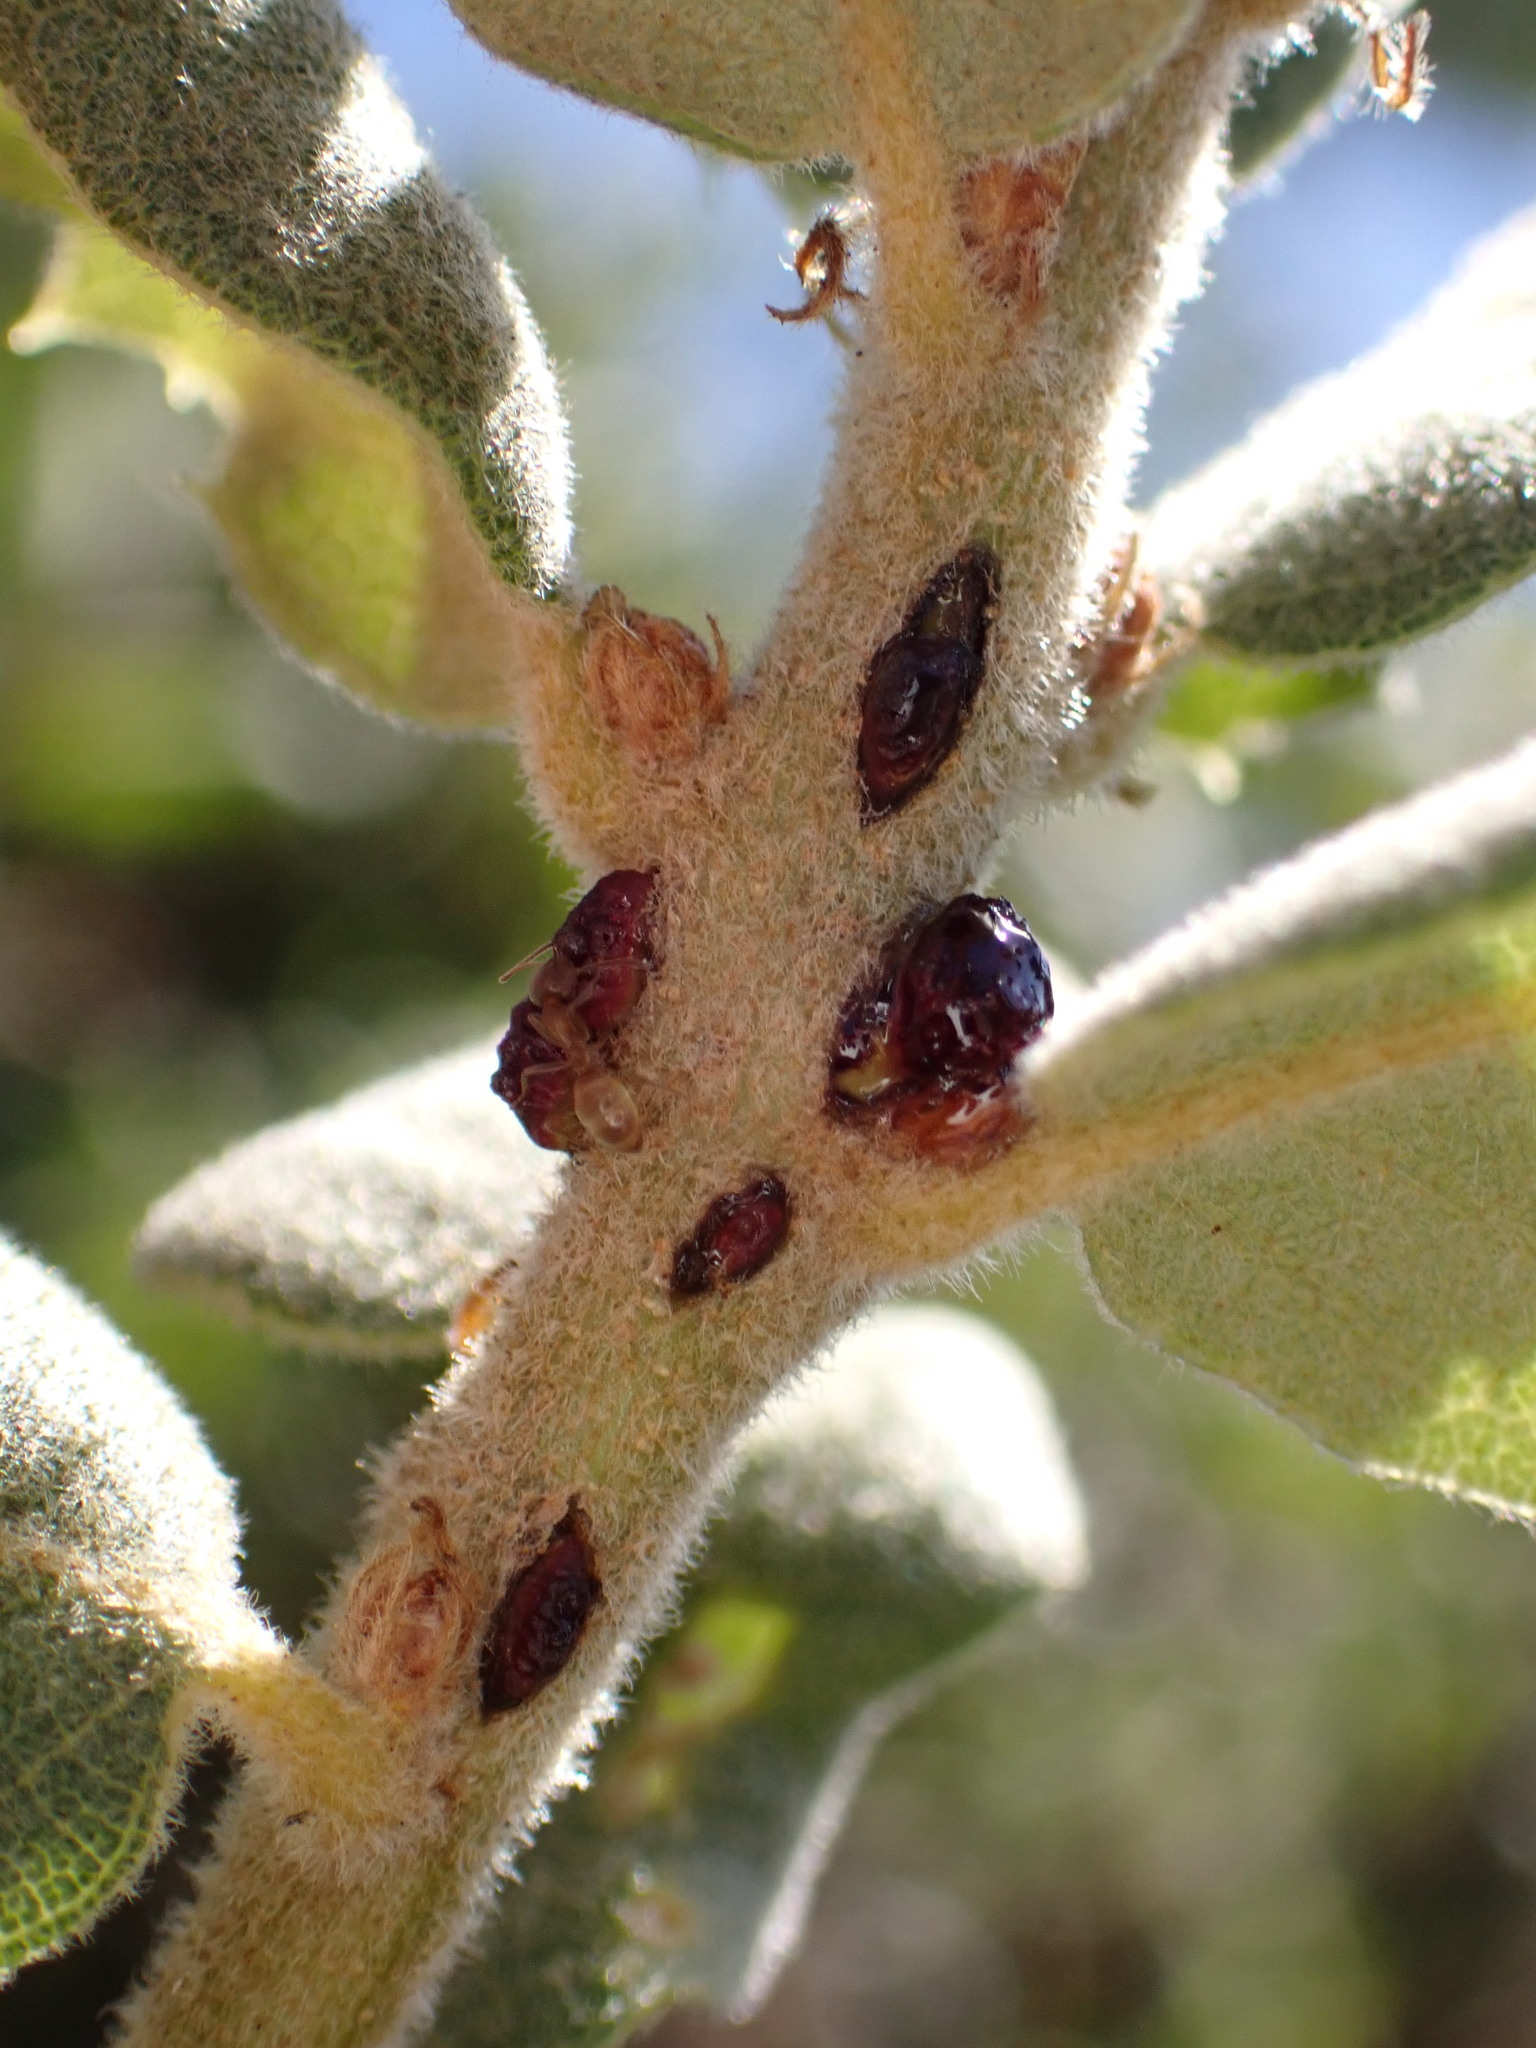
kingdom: Animalia
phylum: Arthropoda
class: Insecta
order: Hymenoptera
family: Cynipidae
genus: Disholcaspis
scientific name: Disholcaspis prehensa
